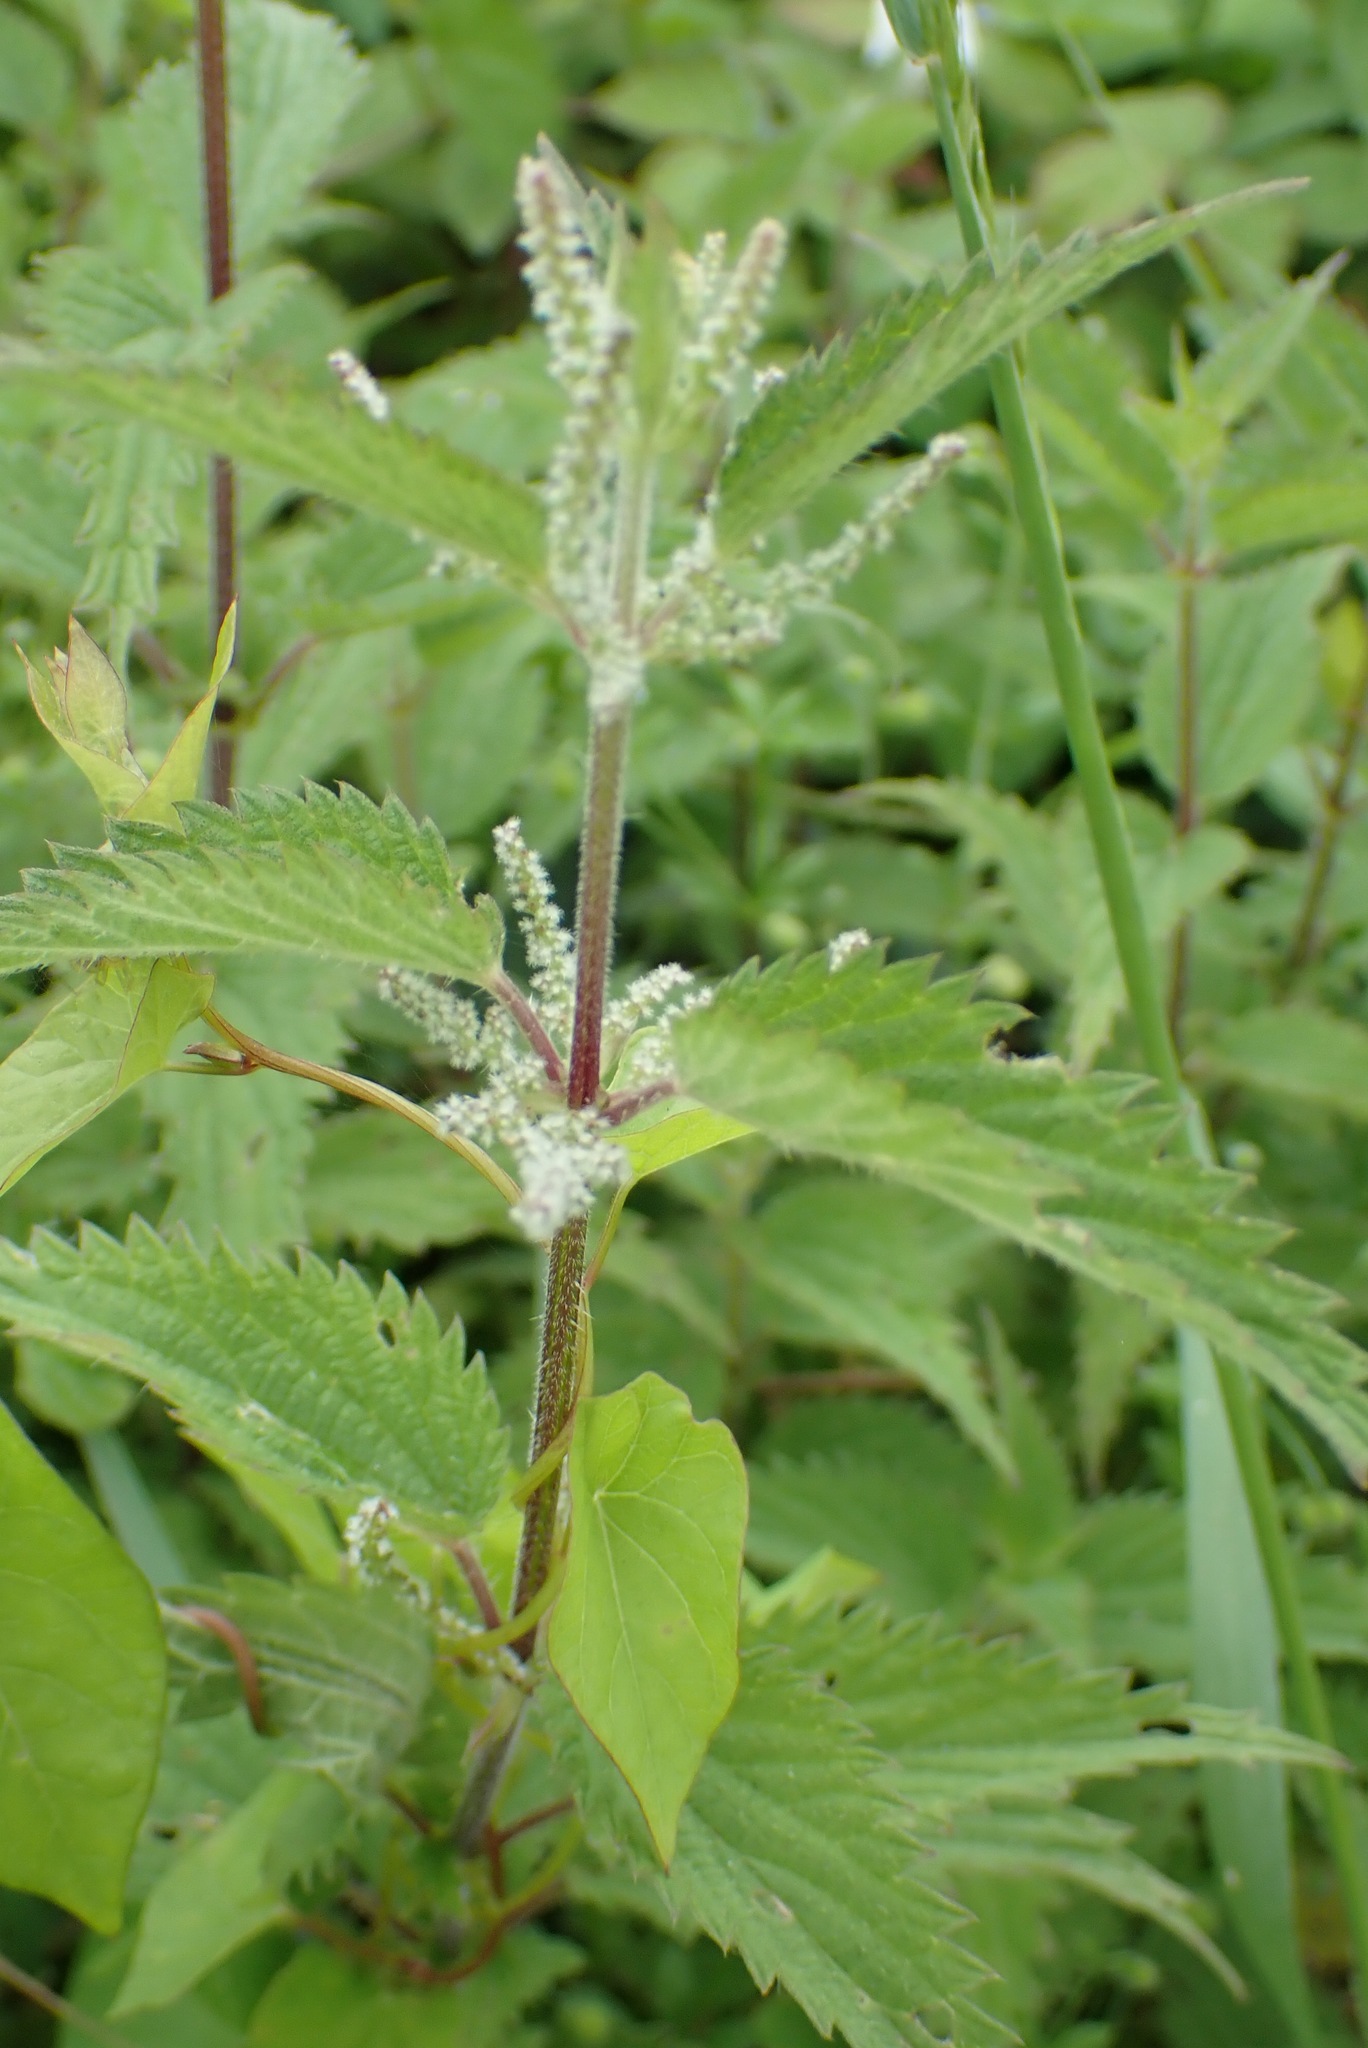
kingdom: Plantae
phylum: Tracheophyta
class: Magnoliopsida
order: Rosales
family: Urticaceae
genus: Urtica
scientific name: Urtica dioica
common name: Common nettle
